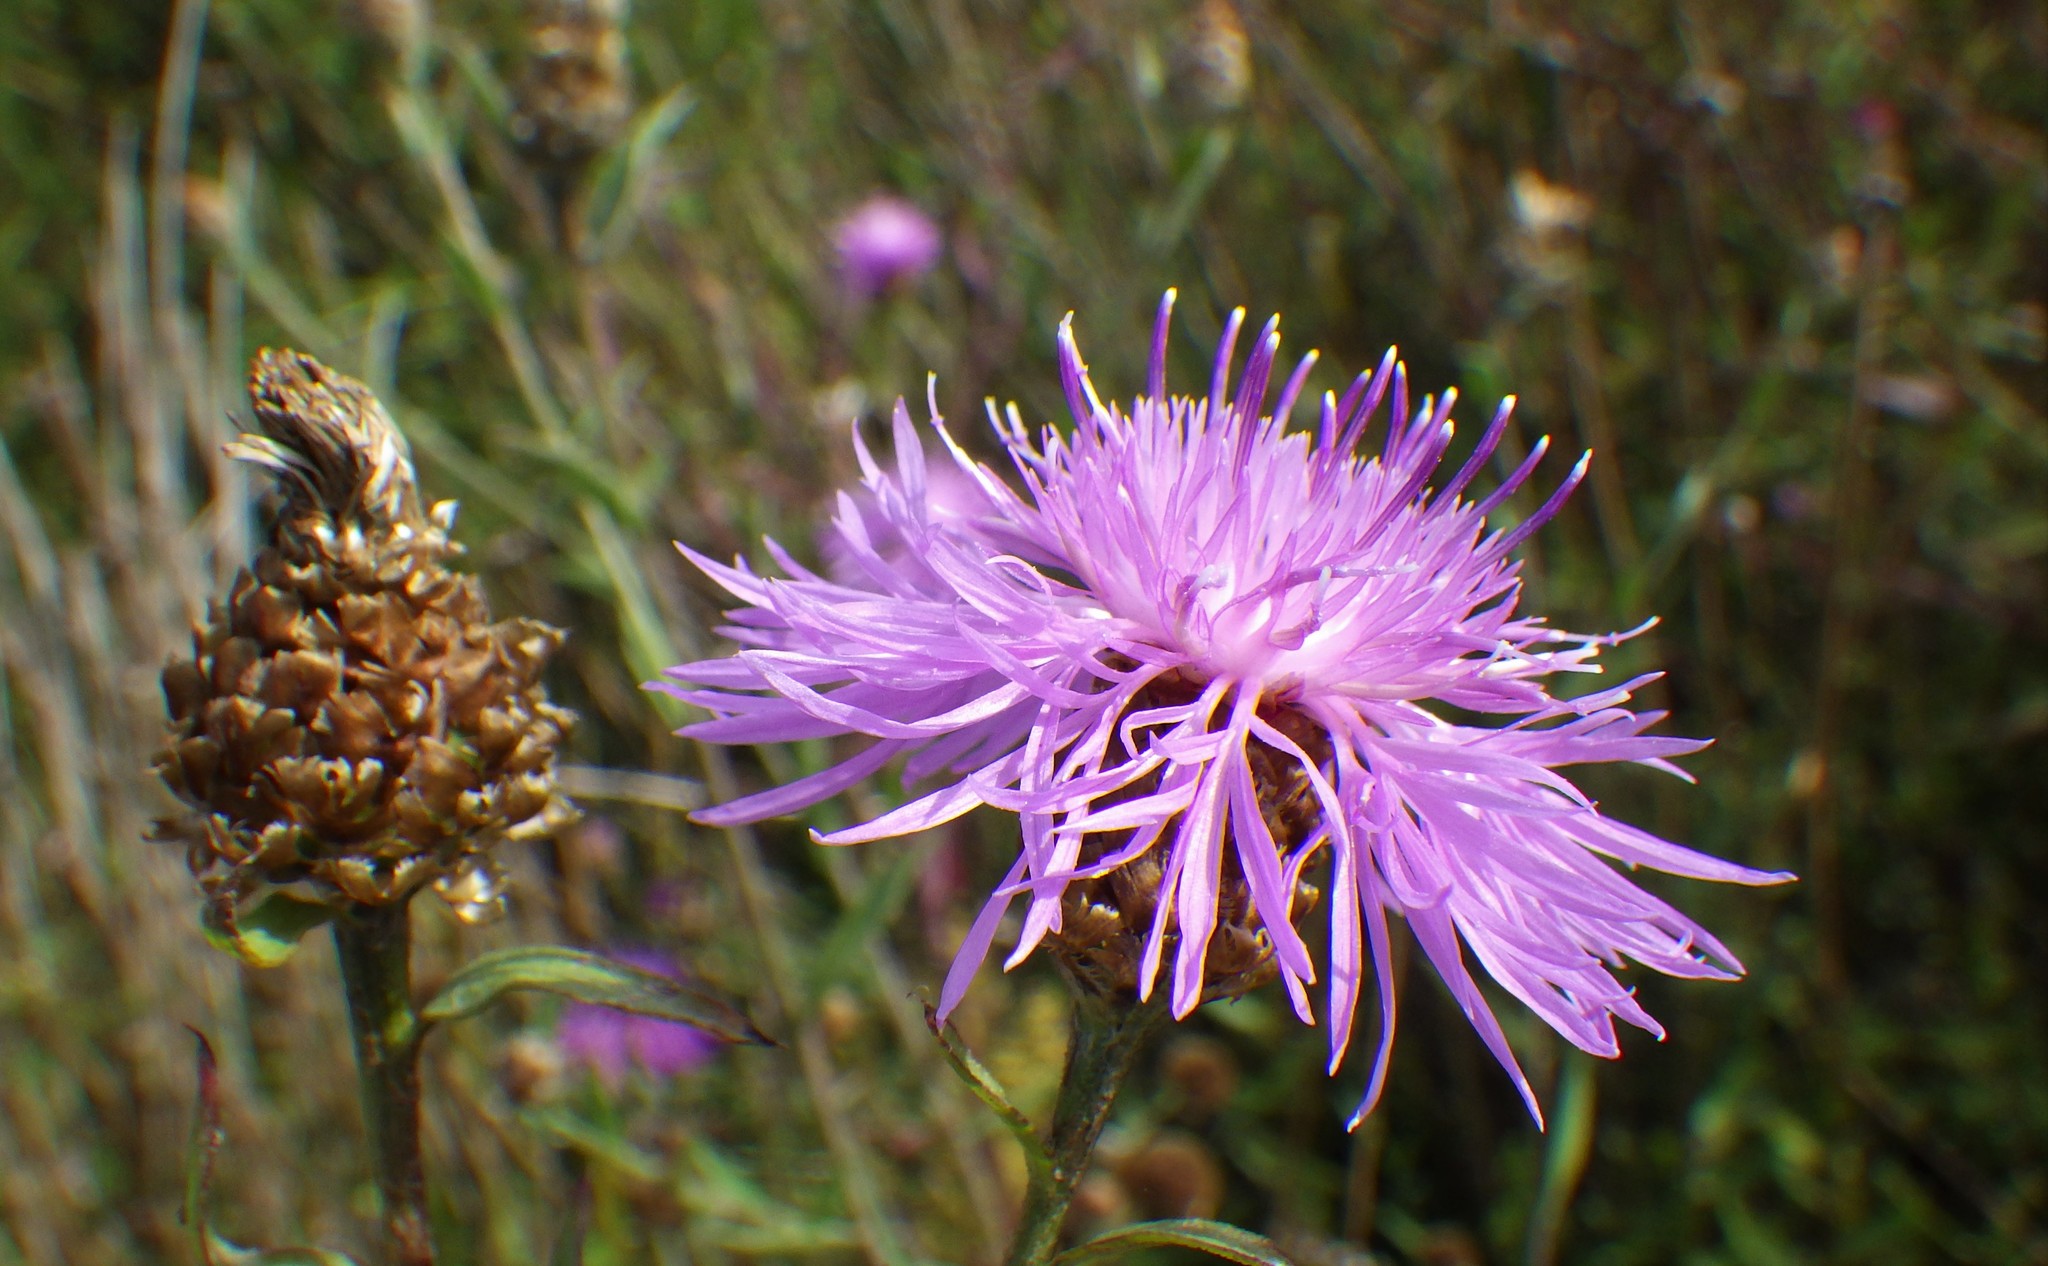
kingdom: Plantae
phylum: Tracheophyta
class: Magnoliopsida
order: Asterales
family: Asteraceae
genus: Centaurea
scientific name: Centaurea jacea
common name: Brown knapweed
